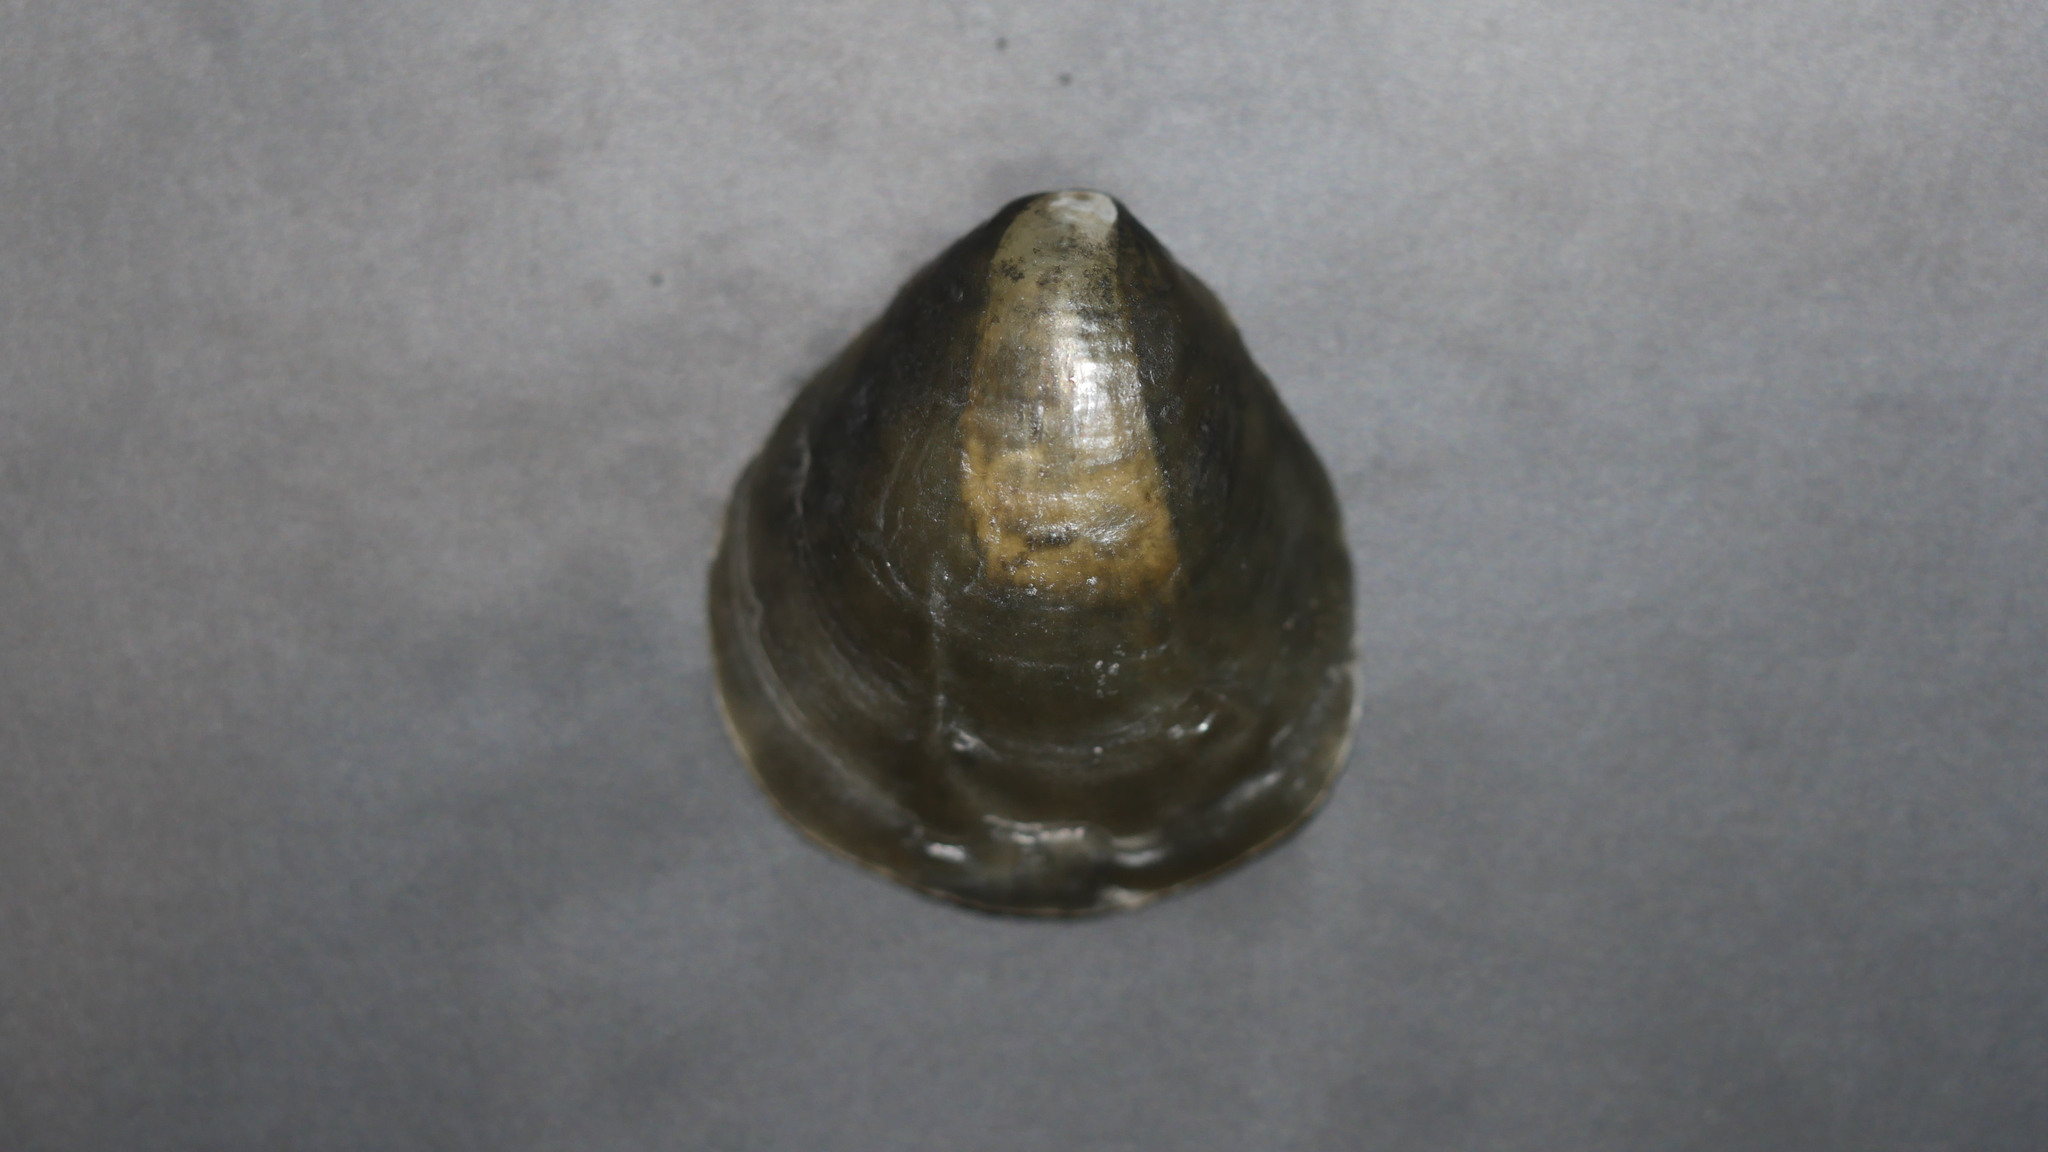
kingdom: Animalia
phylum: Mollusca
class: Bivalvia
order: Pectinida
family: Anomiidae
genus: Anomia
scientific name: Anomia simplex
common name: Common jingle shell
